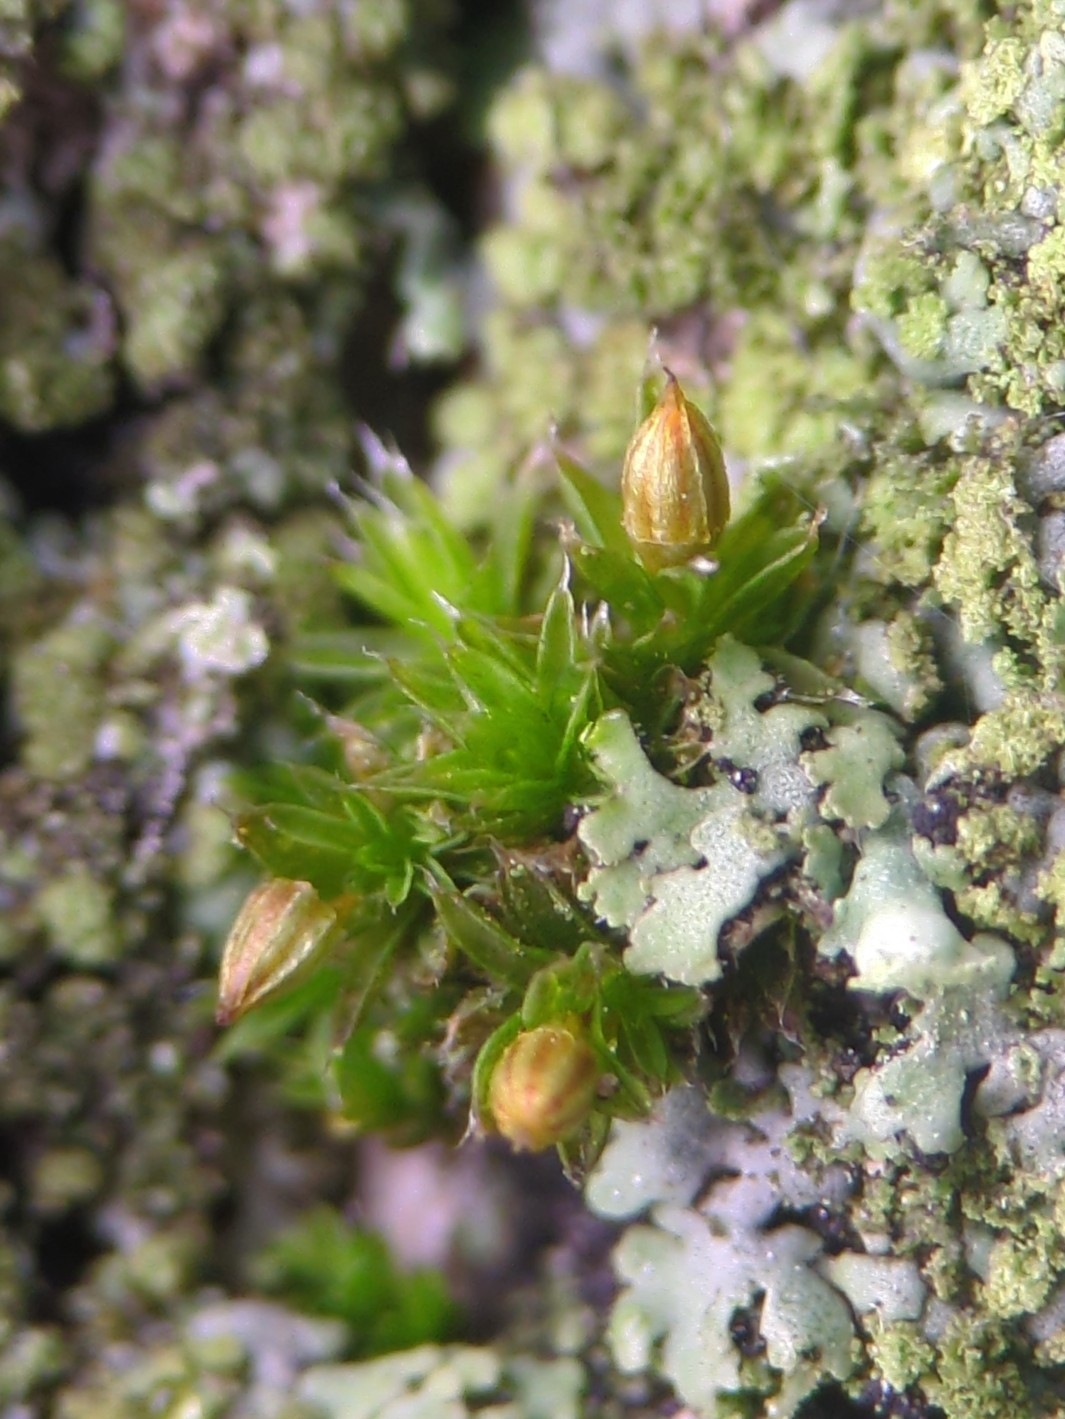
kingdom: Plantae
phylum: Bryophyta
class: Bryopsida
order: Orthotrichales
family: Orthotrichaceae
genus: Orthotrichum
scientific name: Orthotrichum diaphanum
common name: White-tipped bristle-moss
